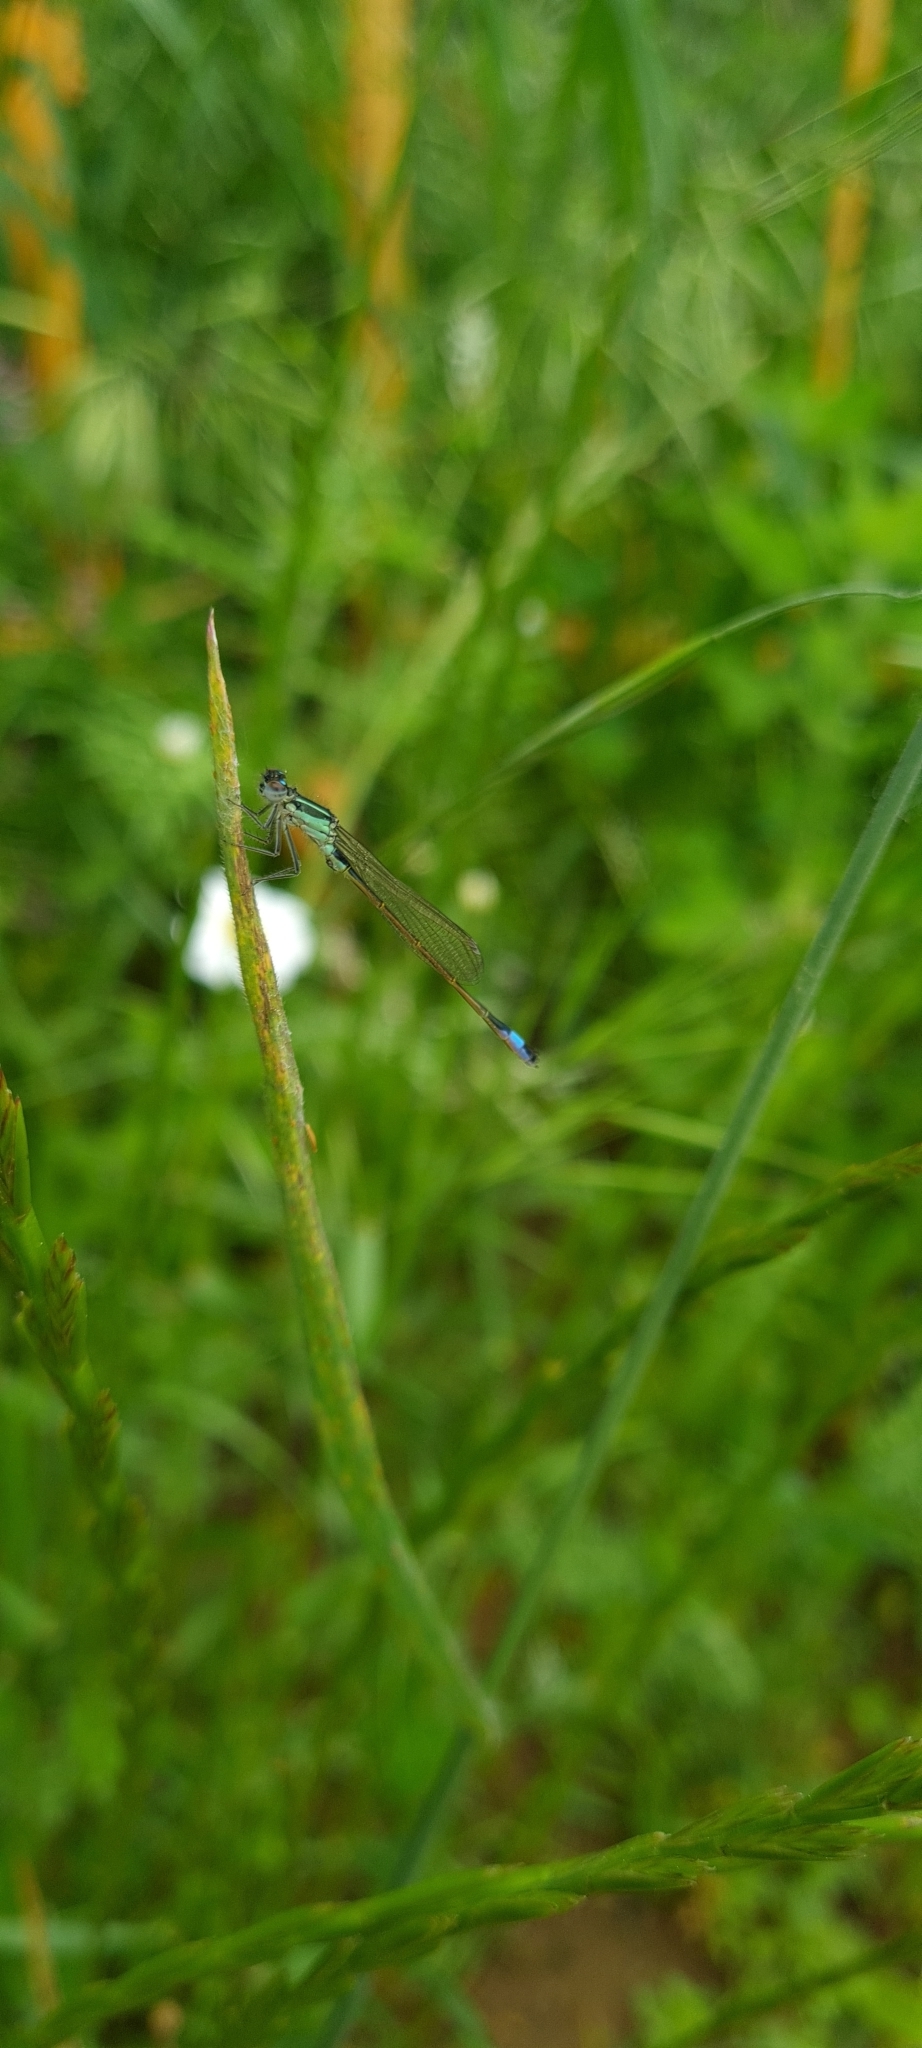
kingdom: Animalia
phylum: Arthropoda
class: Insecta
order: Odonata
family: Coenagrionidae
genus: Ischnura
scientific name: Ischnura elegans
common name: Blue-tailed damselfly
